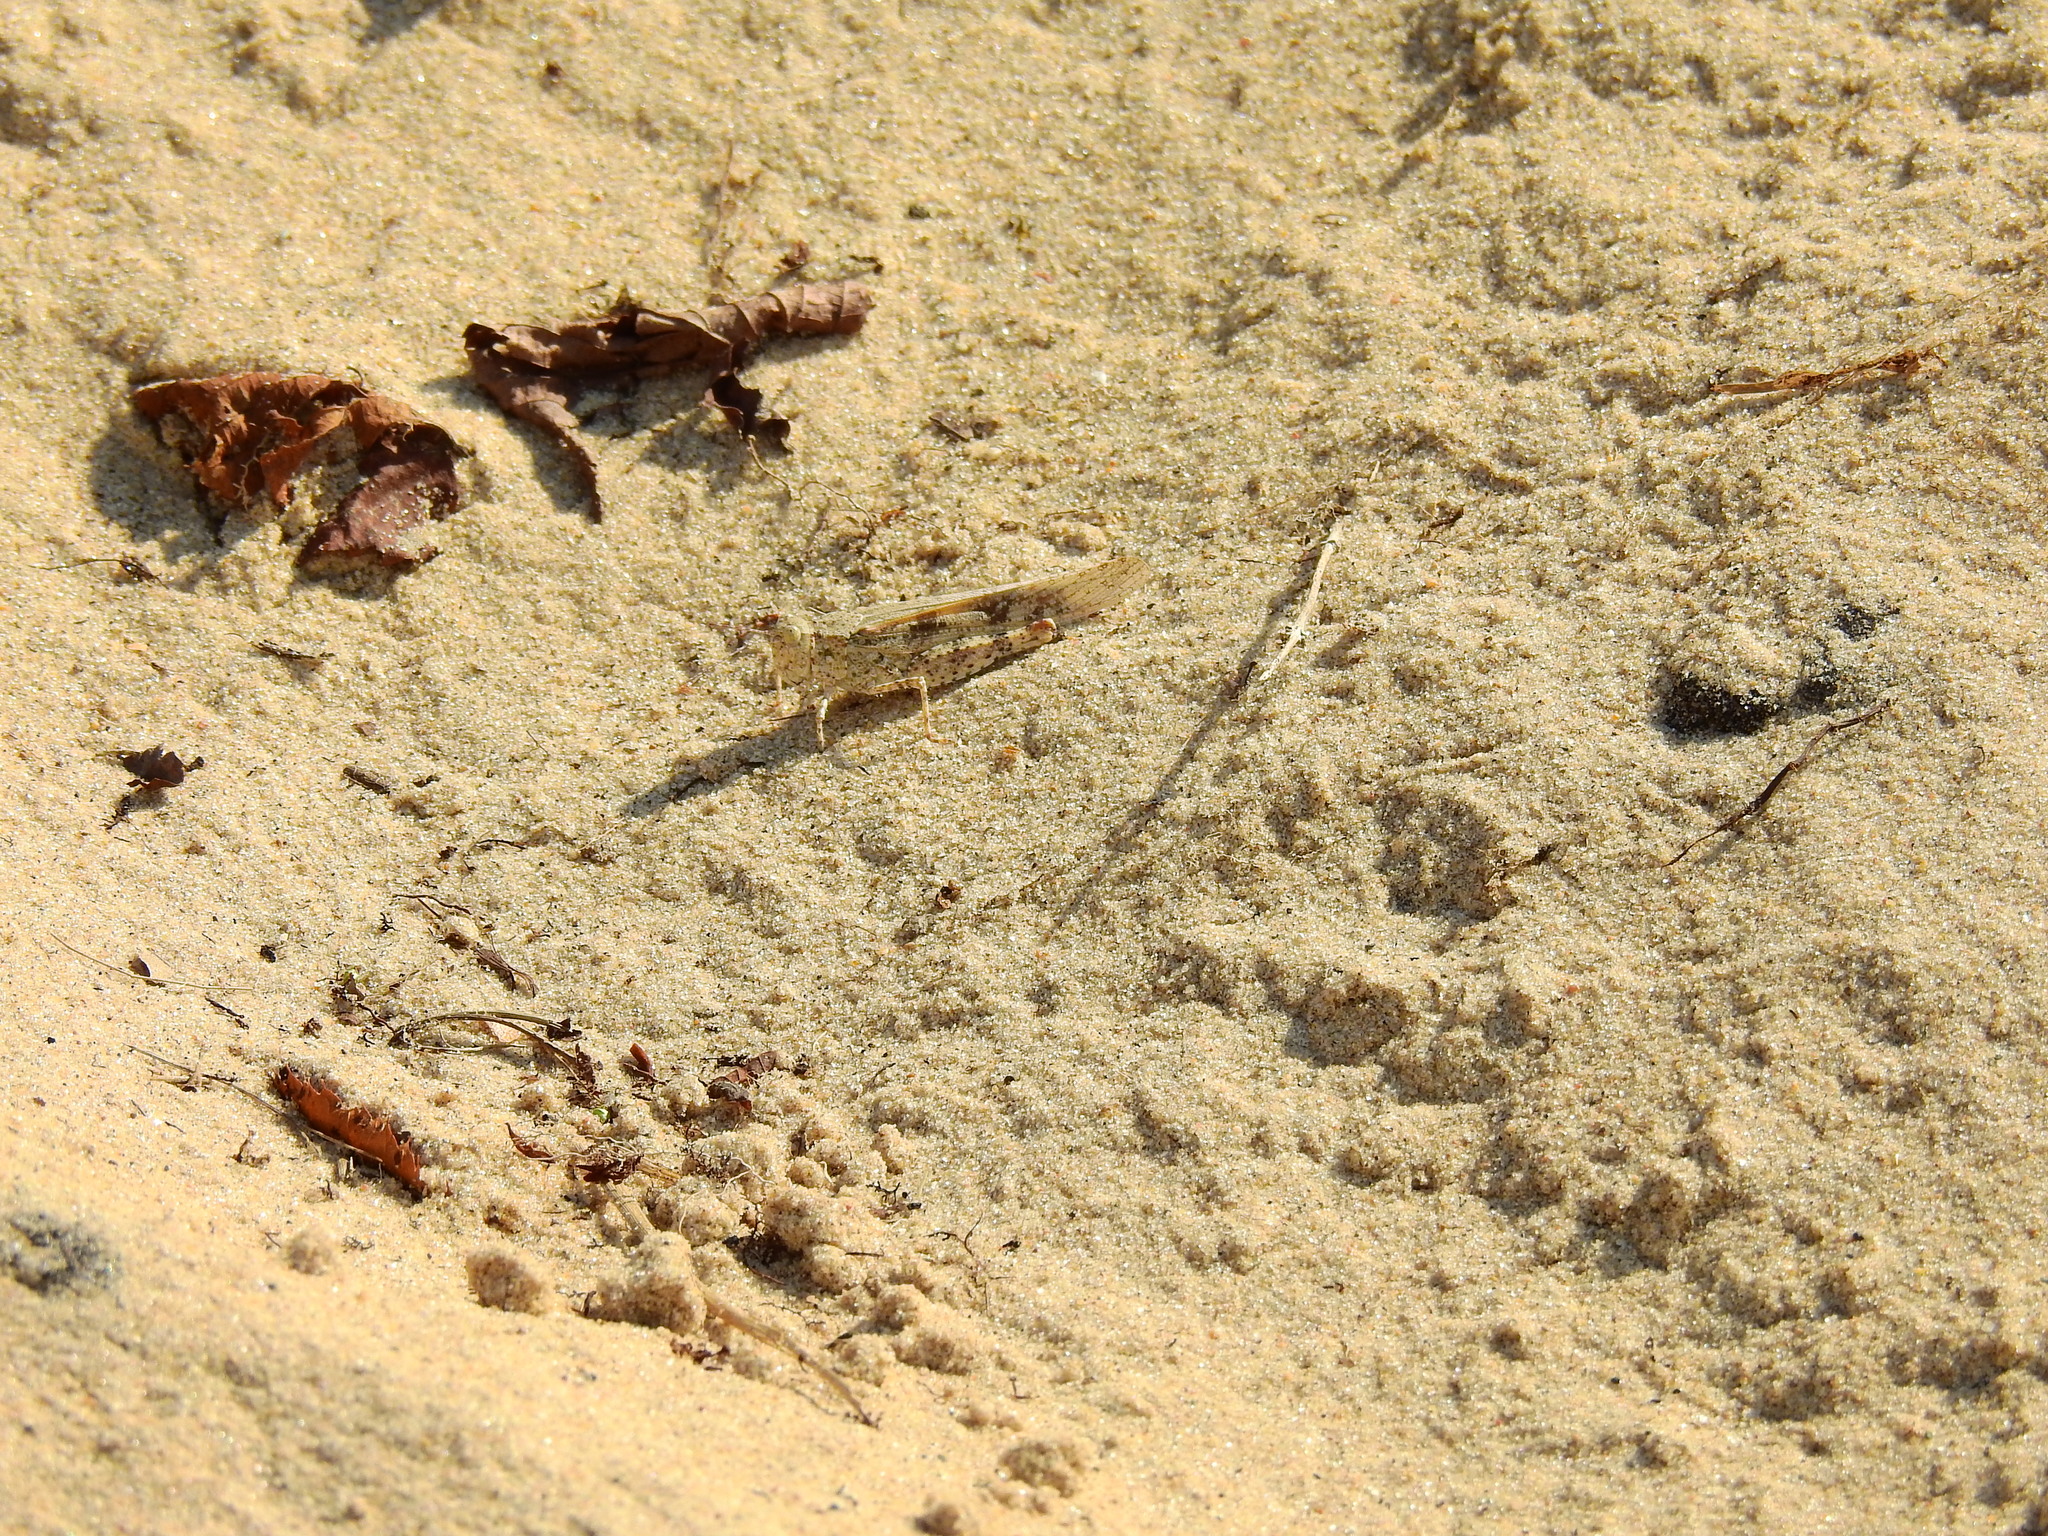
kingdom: Animalia
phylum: Arthropoda
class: Insecta
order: Orthoptera
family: Acrididae
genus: Trimerotropis
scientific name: Trimerotropis maritima
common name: Seaside locust
